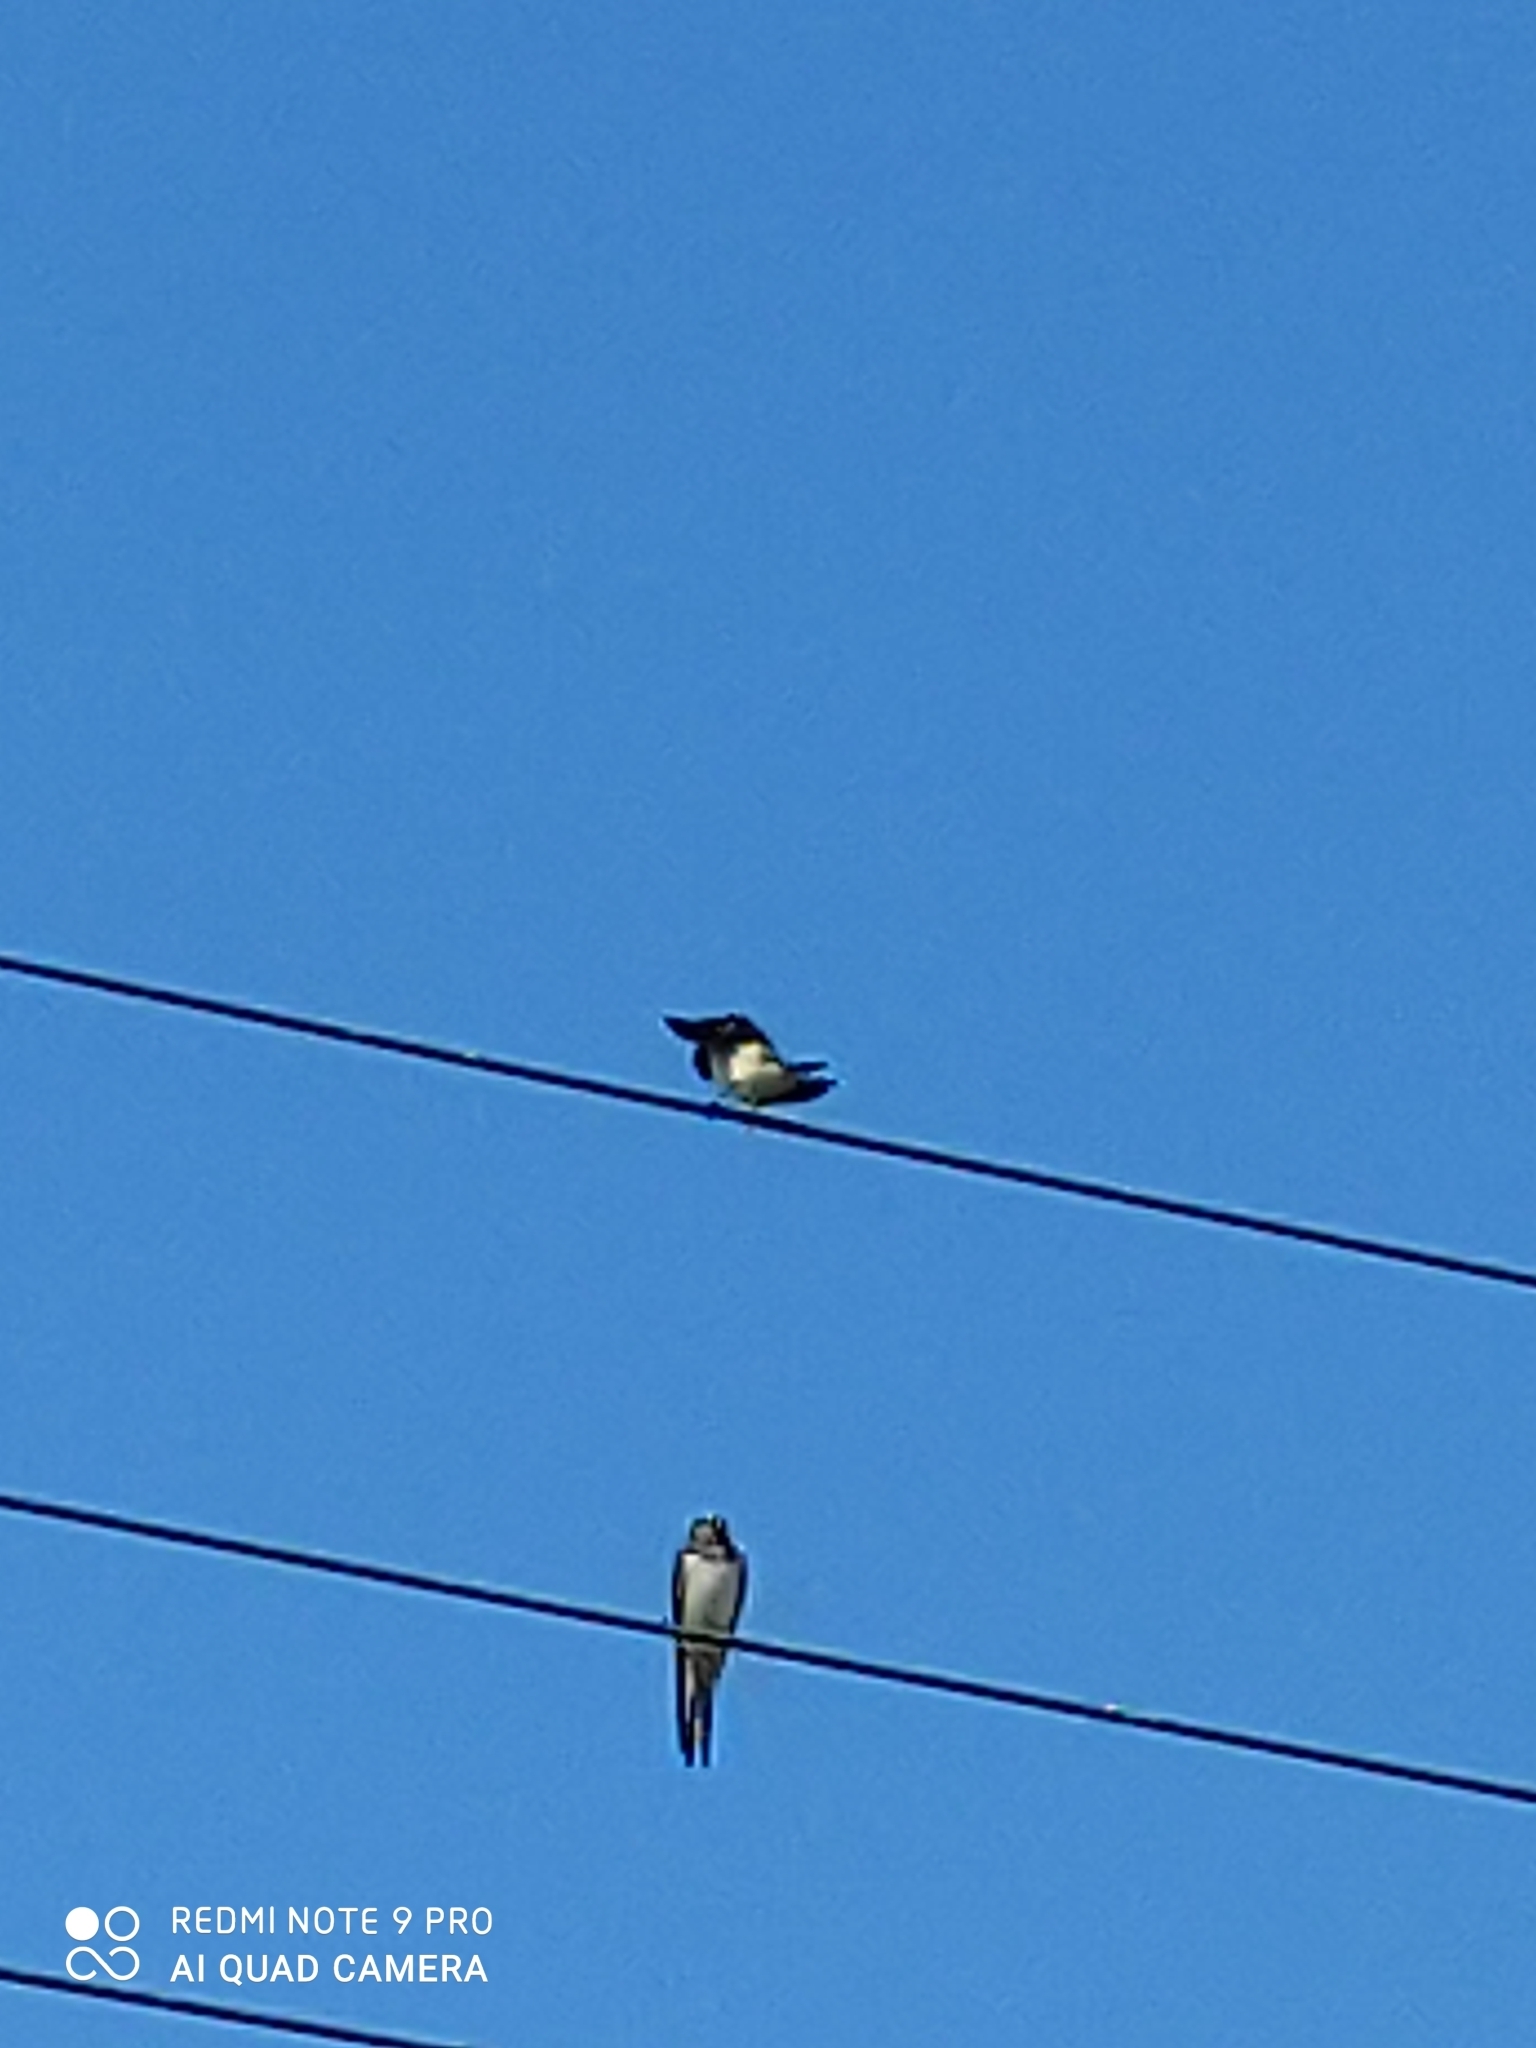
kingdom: Animalia
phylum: Chordata
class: Aves
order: Passeriformes
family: Hirundinidae
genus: Delichon
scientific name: Delichon urbicum
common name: Common house martin
